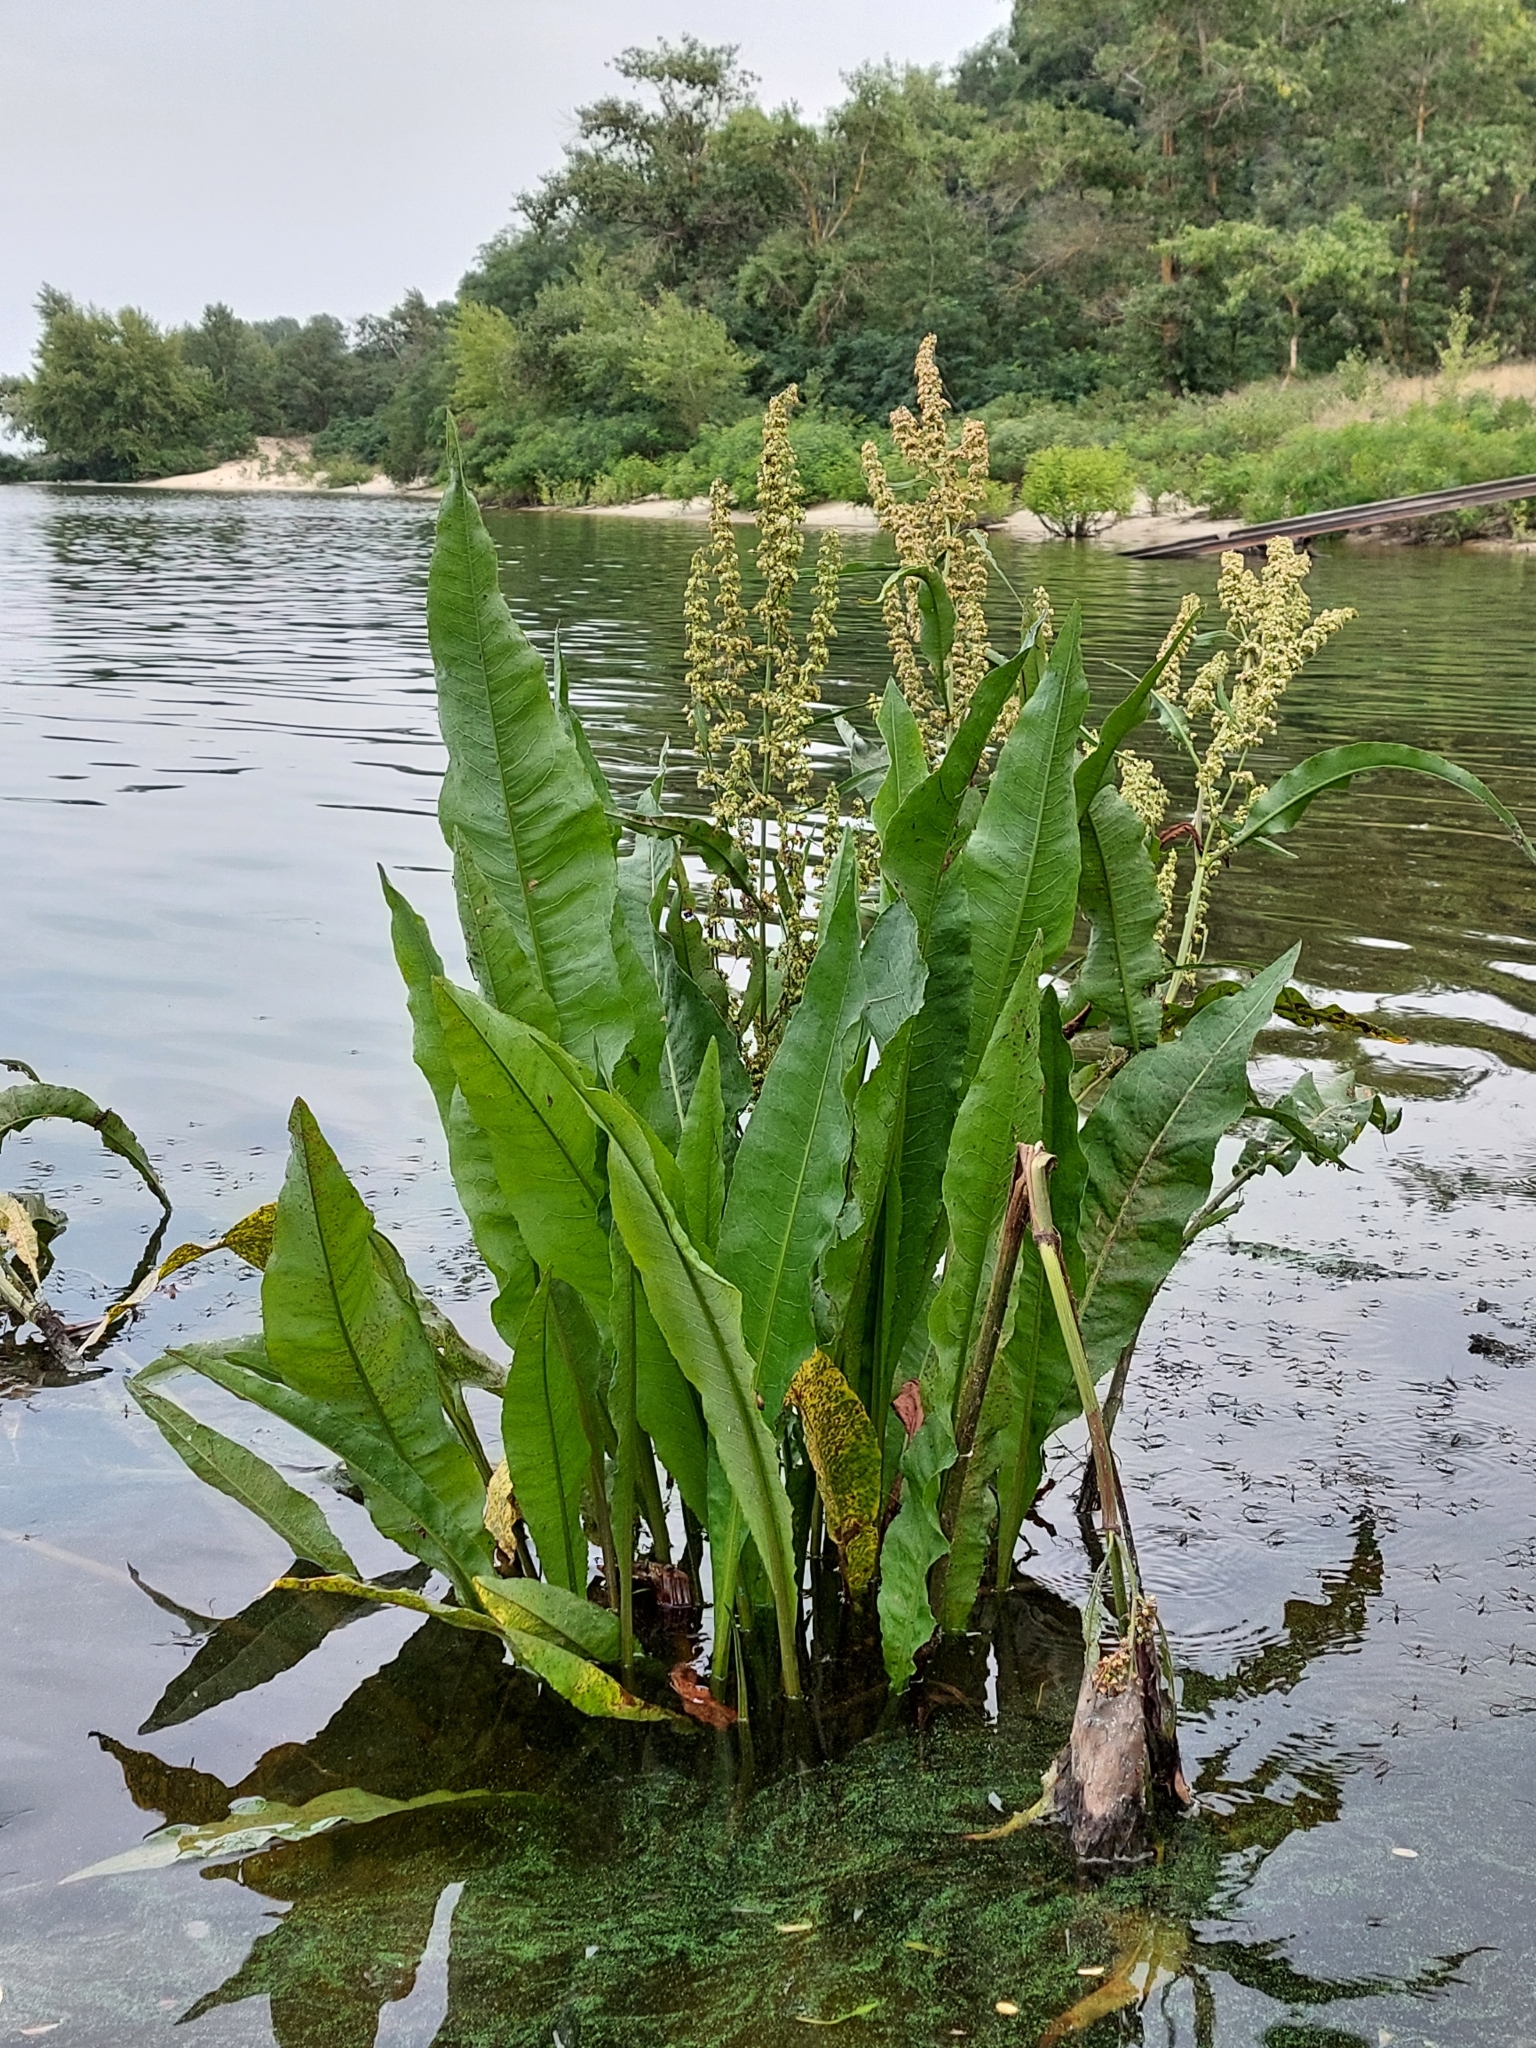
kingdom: Plantae
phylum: Tracheophyta
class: Magnoliopsida
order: Caryophyllales
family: Polygonaceae
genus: Rumex
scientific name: Rumex hydrolapathum
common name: Water dock
